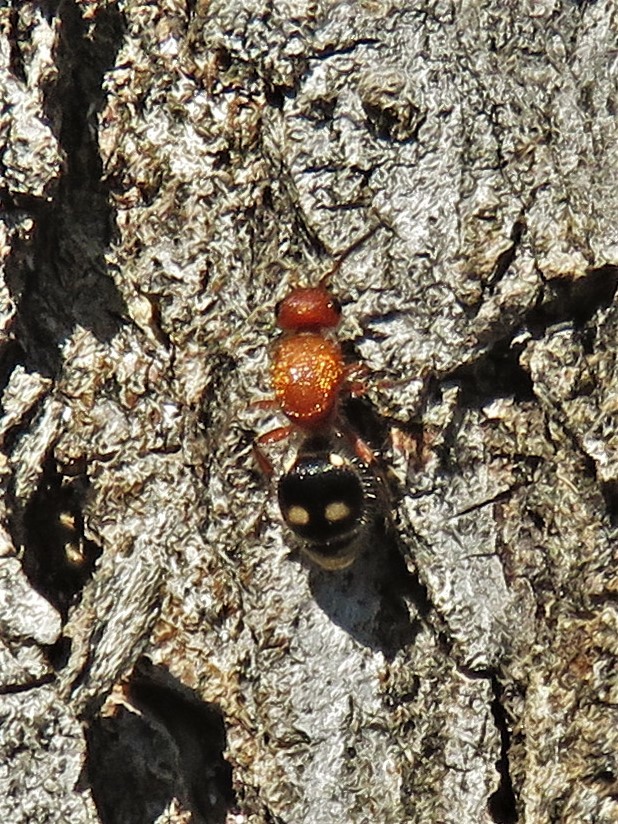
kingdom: Animalia
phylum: Arthropoda
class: Insecta
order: Hymenoptera
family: Mutillidae
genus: Dasymutilla
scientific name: Dasymutilla
